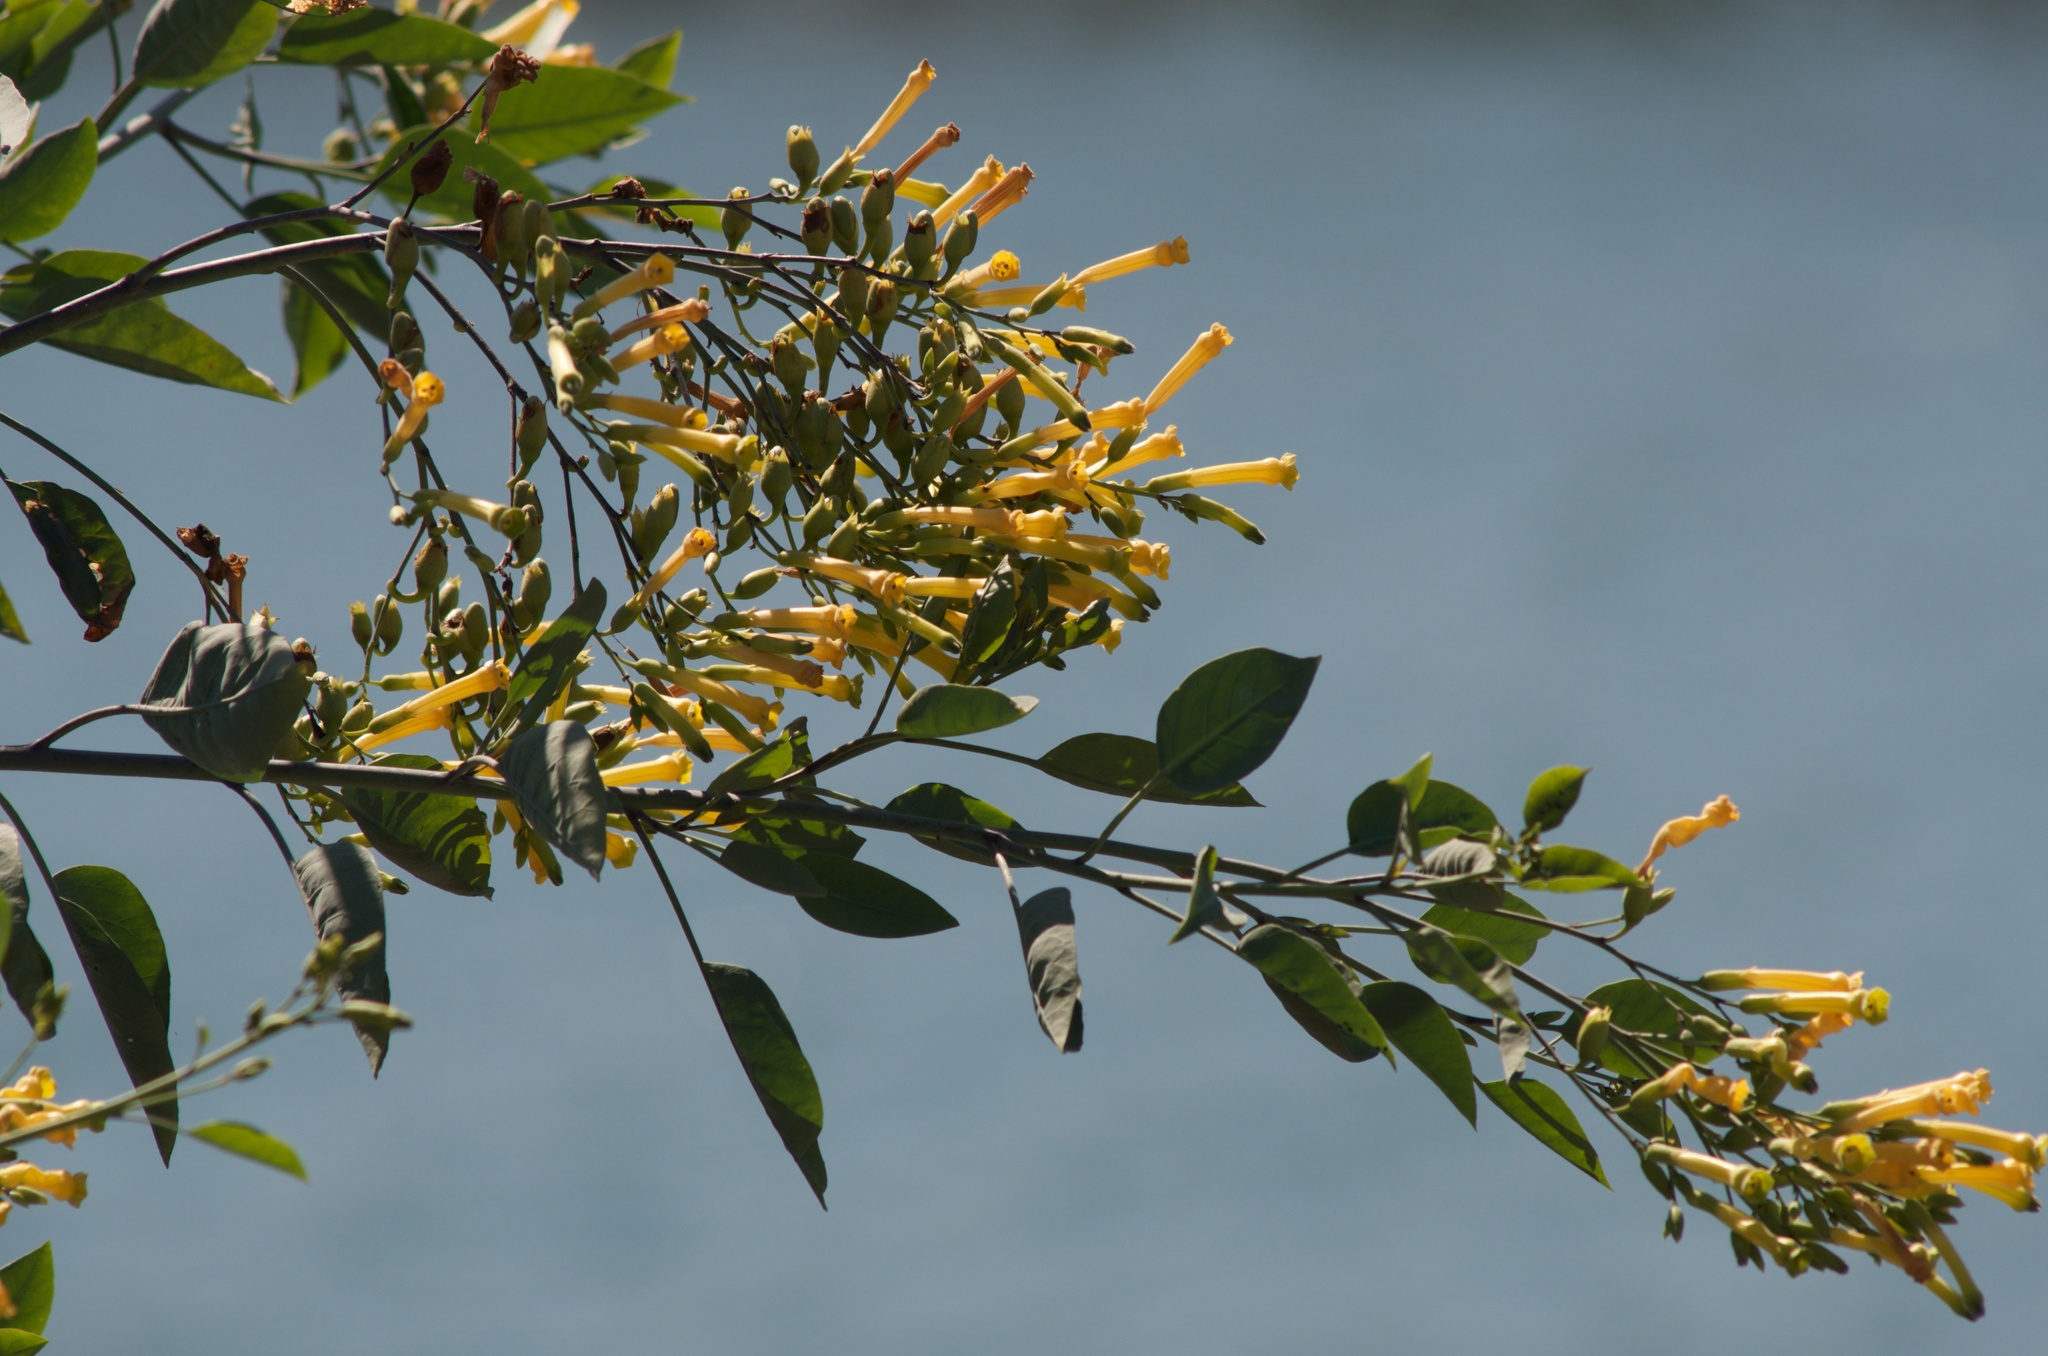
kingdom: Plantae
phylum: Tracheophyta
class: Magnoliopsida
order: Solanales
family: Solanaceae
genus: Nicotiana
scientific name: Nicotiana glauca
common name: Tree tobacco
